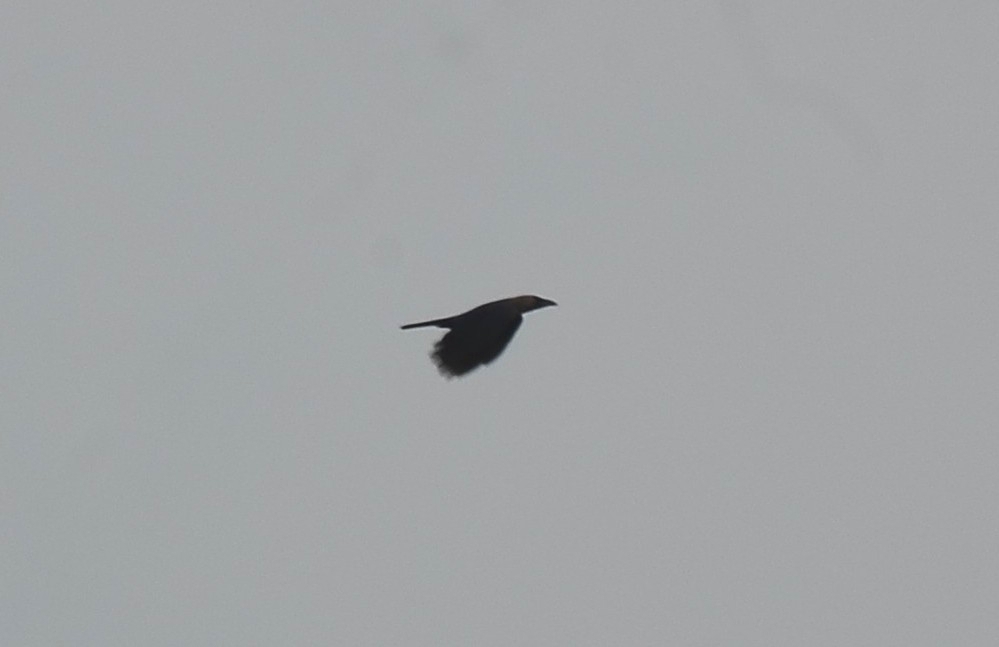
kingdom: Animalia
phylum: Chordata
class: Aves
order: Passeriformes
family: Corvidae
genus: Corvus
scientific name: Corvus splendens
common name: House crow
